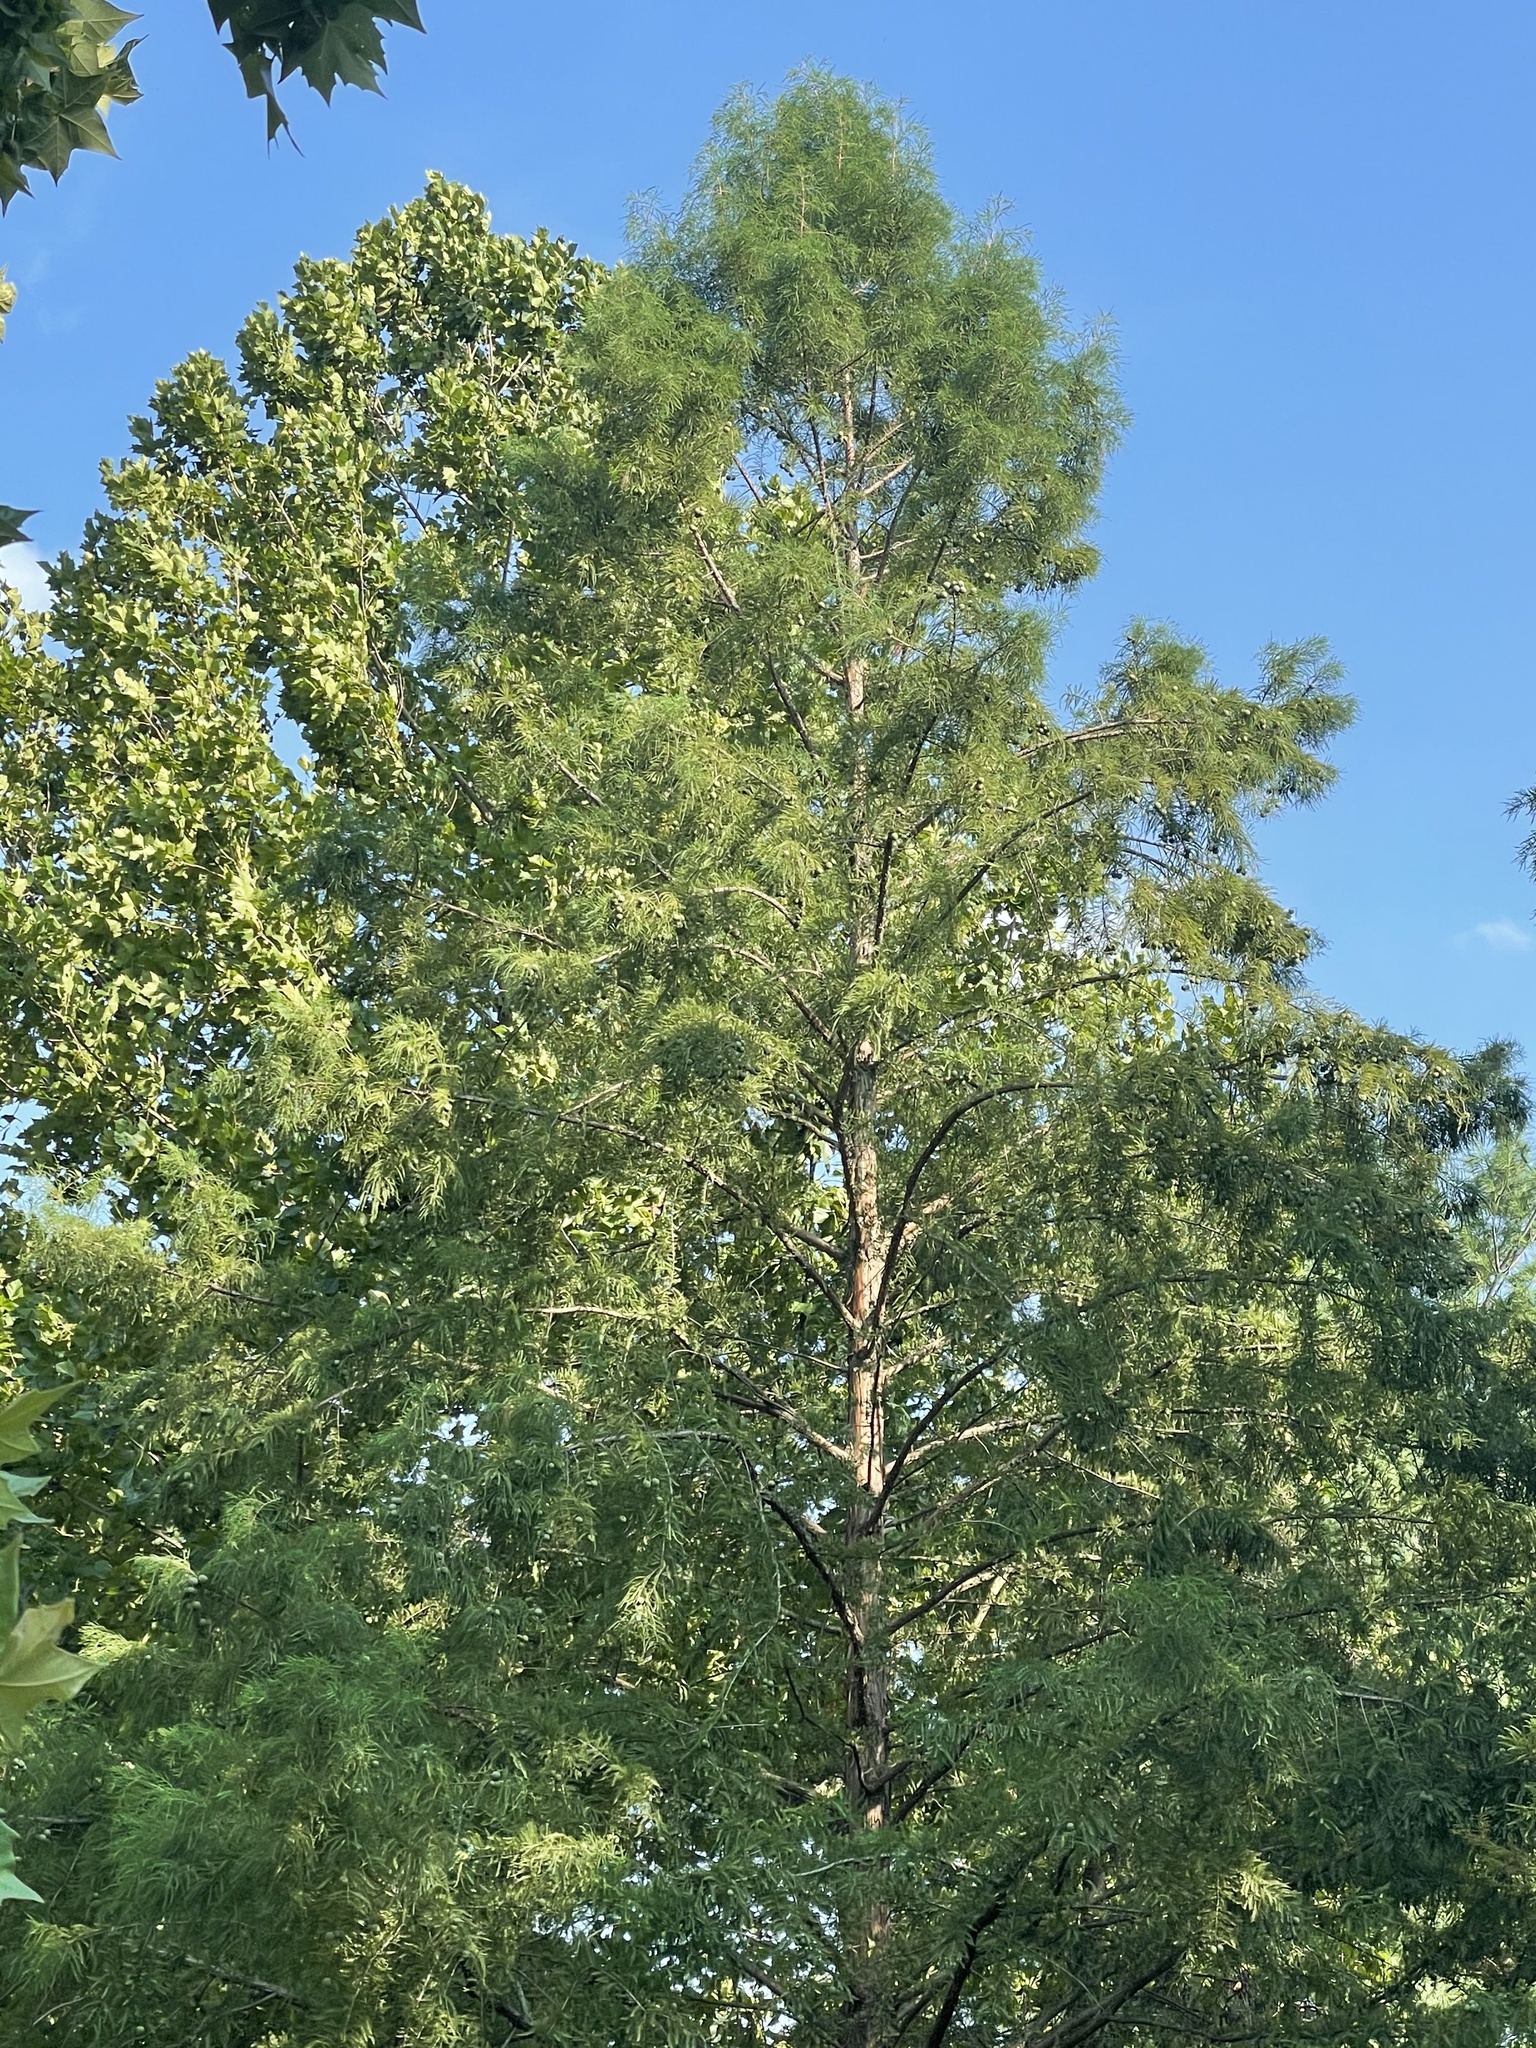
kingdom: Plantae
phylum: Tracheophyta
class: Pinopsida
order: Pinales
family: Cupressaceae
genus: Taxodium
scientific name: Taxodium distichum
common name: Bald cypress
